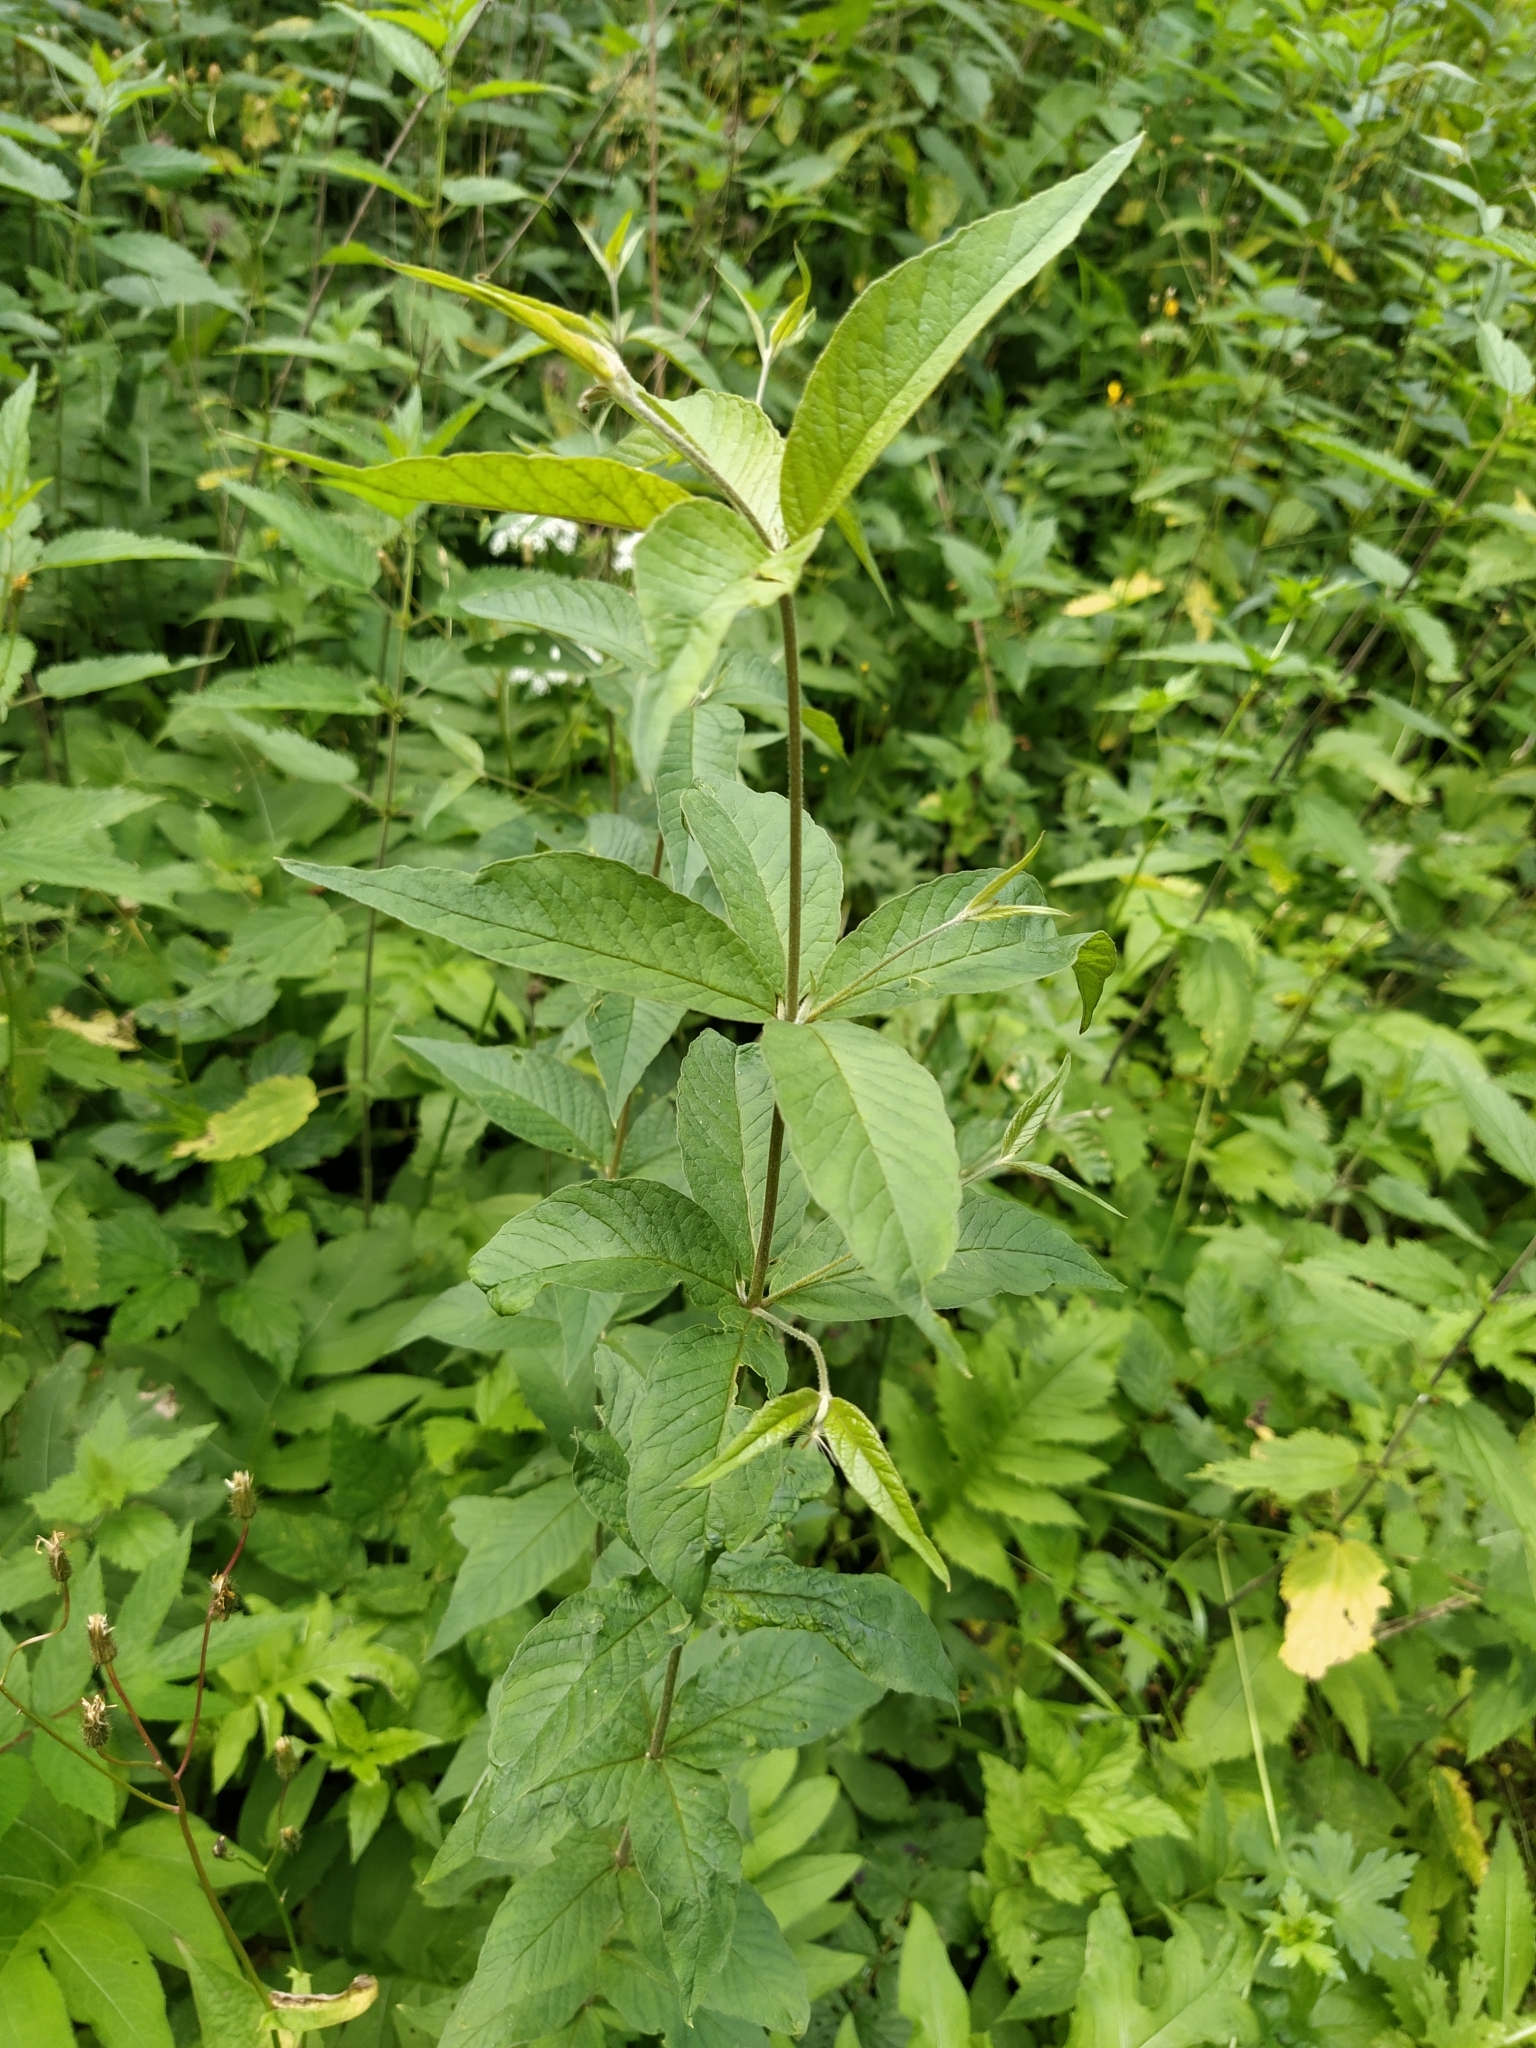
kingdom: Plantae
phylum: Tracheophyta
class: Magnoliopsida
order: Ericales
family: Primulaceae
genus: Lysimachia
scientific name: Lysimachia vulgaris
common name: Yellow loosestrife
